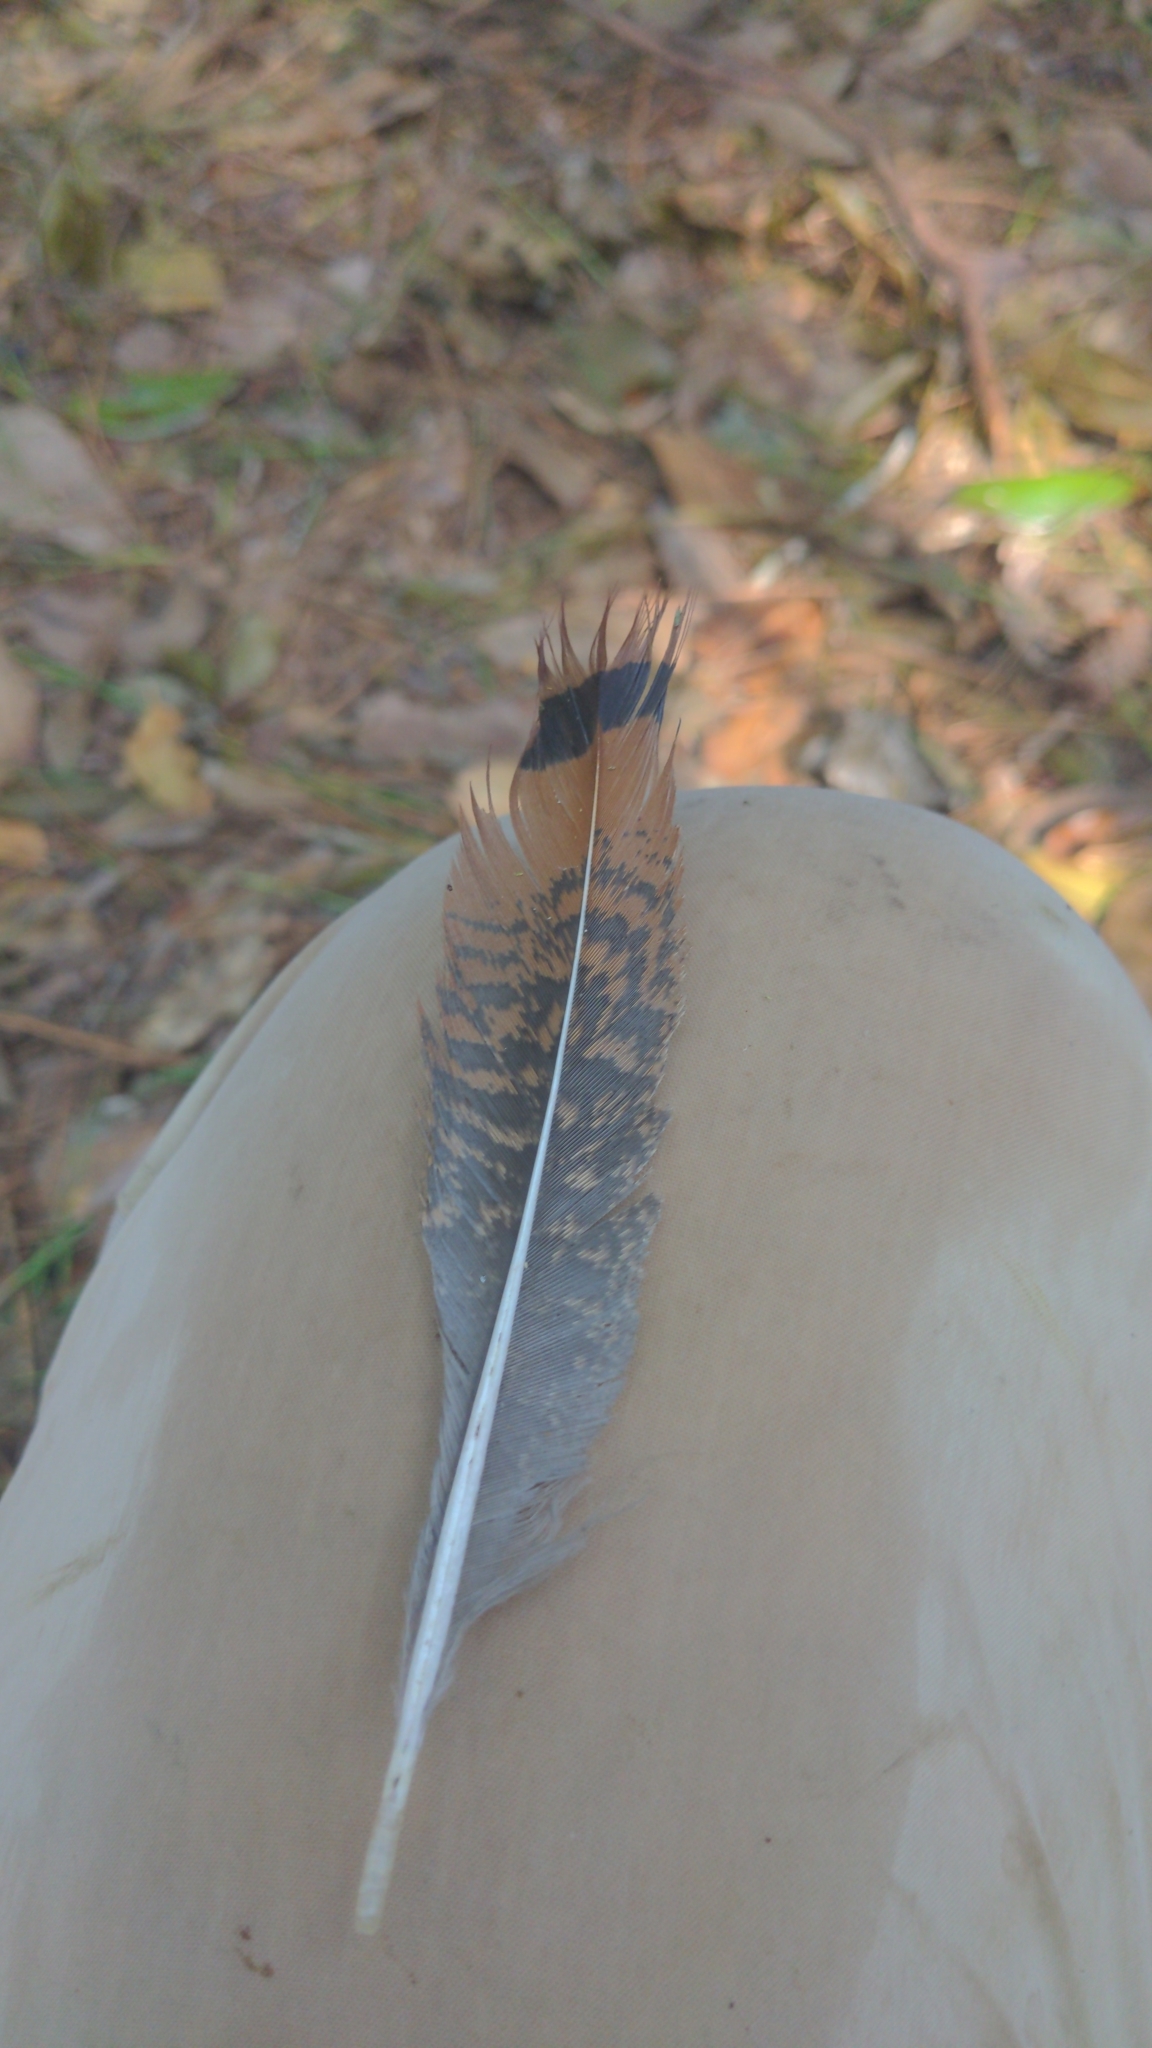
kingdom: Animalia
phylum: Chordata
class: Aves
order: Galliformes
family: Phasianidae
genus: Meleagris
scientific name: Meleagris gallopavo
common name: Wild turkey
